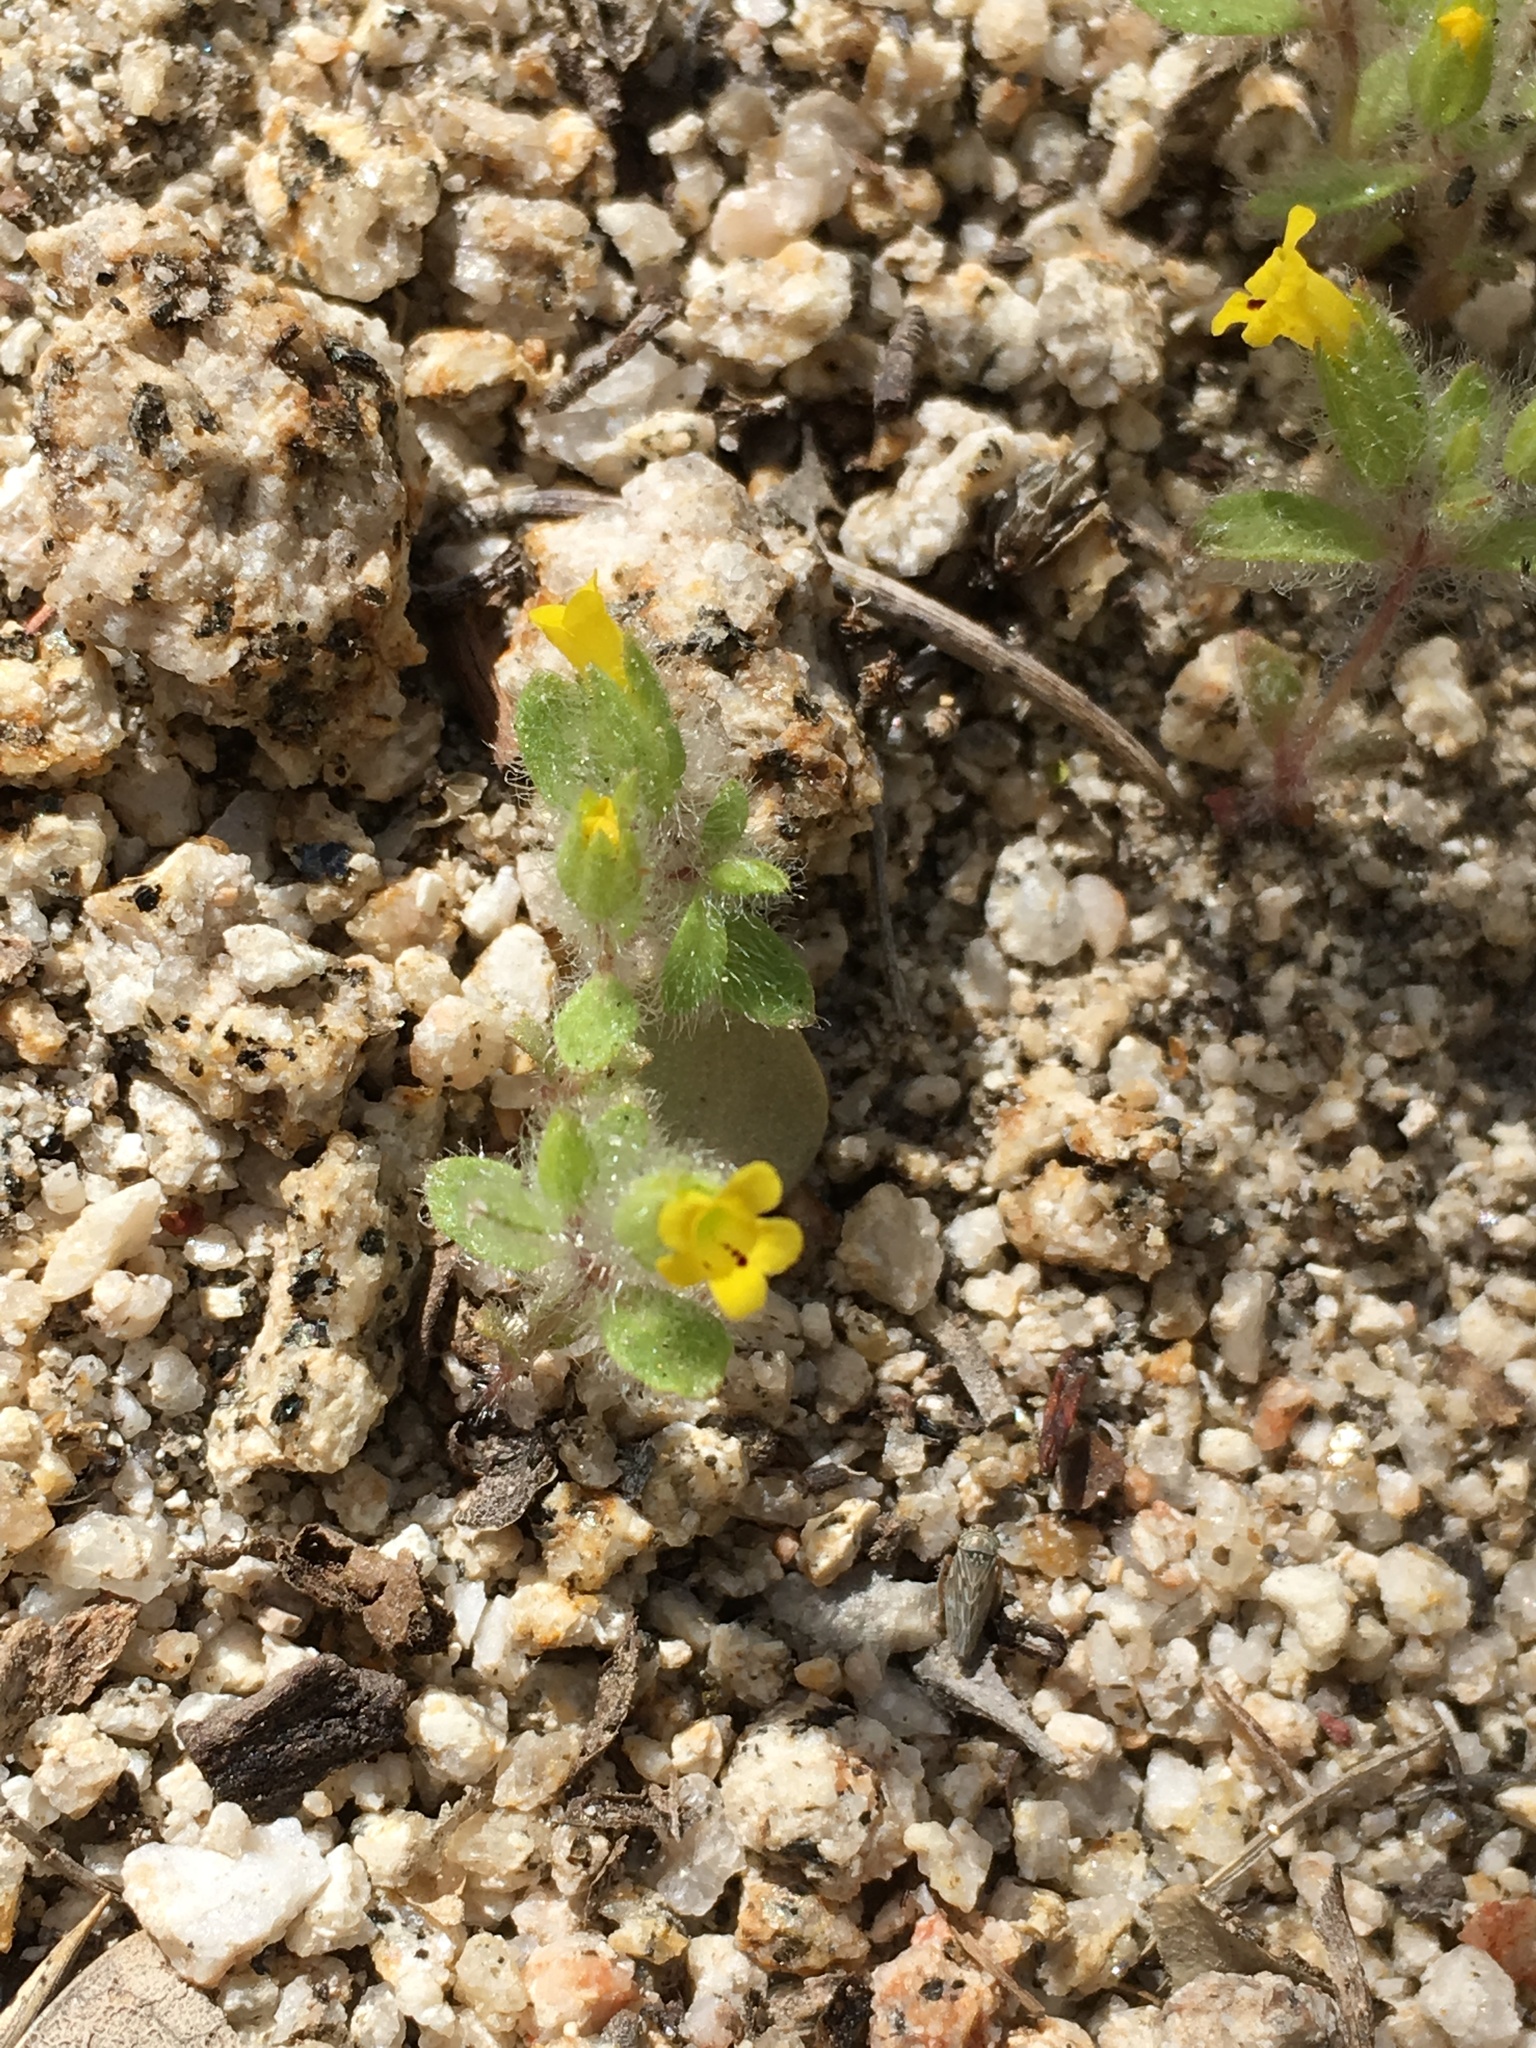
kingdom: Plantae
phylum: Tracheophyta
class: Magnoliopsida
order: Lamiales
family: Phrymaceae
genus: Mimetanthe
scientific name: Mimetanthe pilosa
